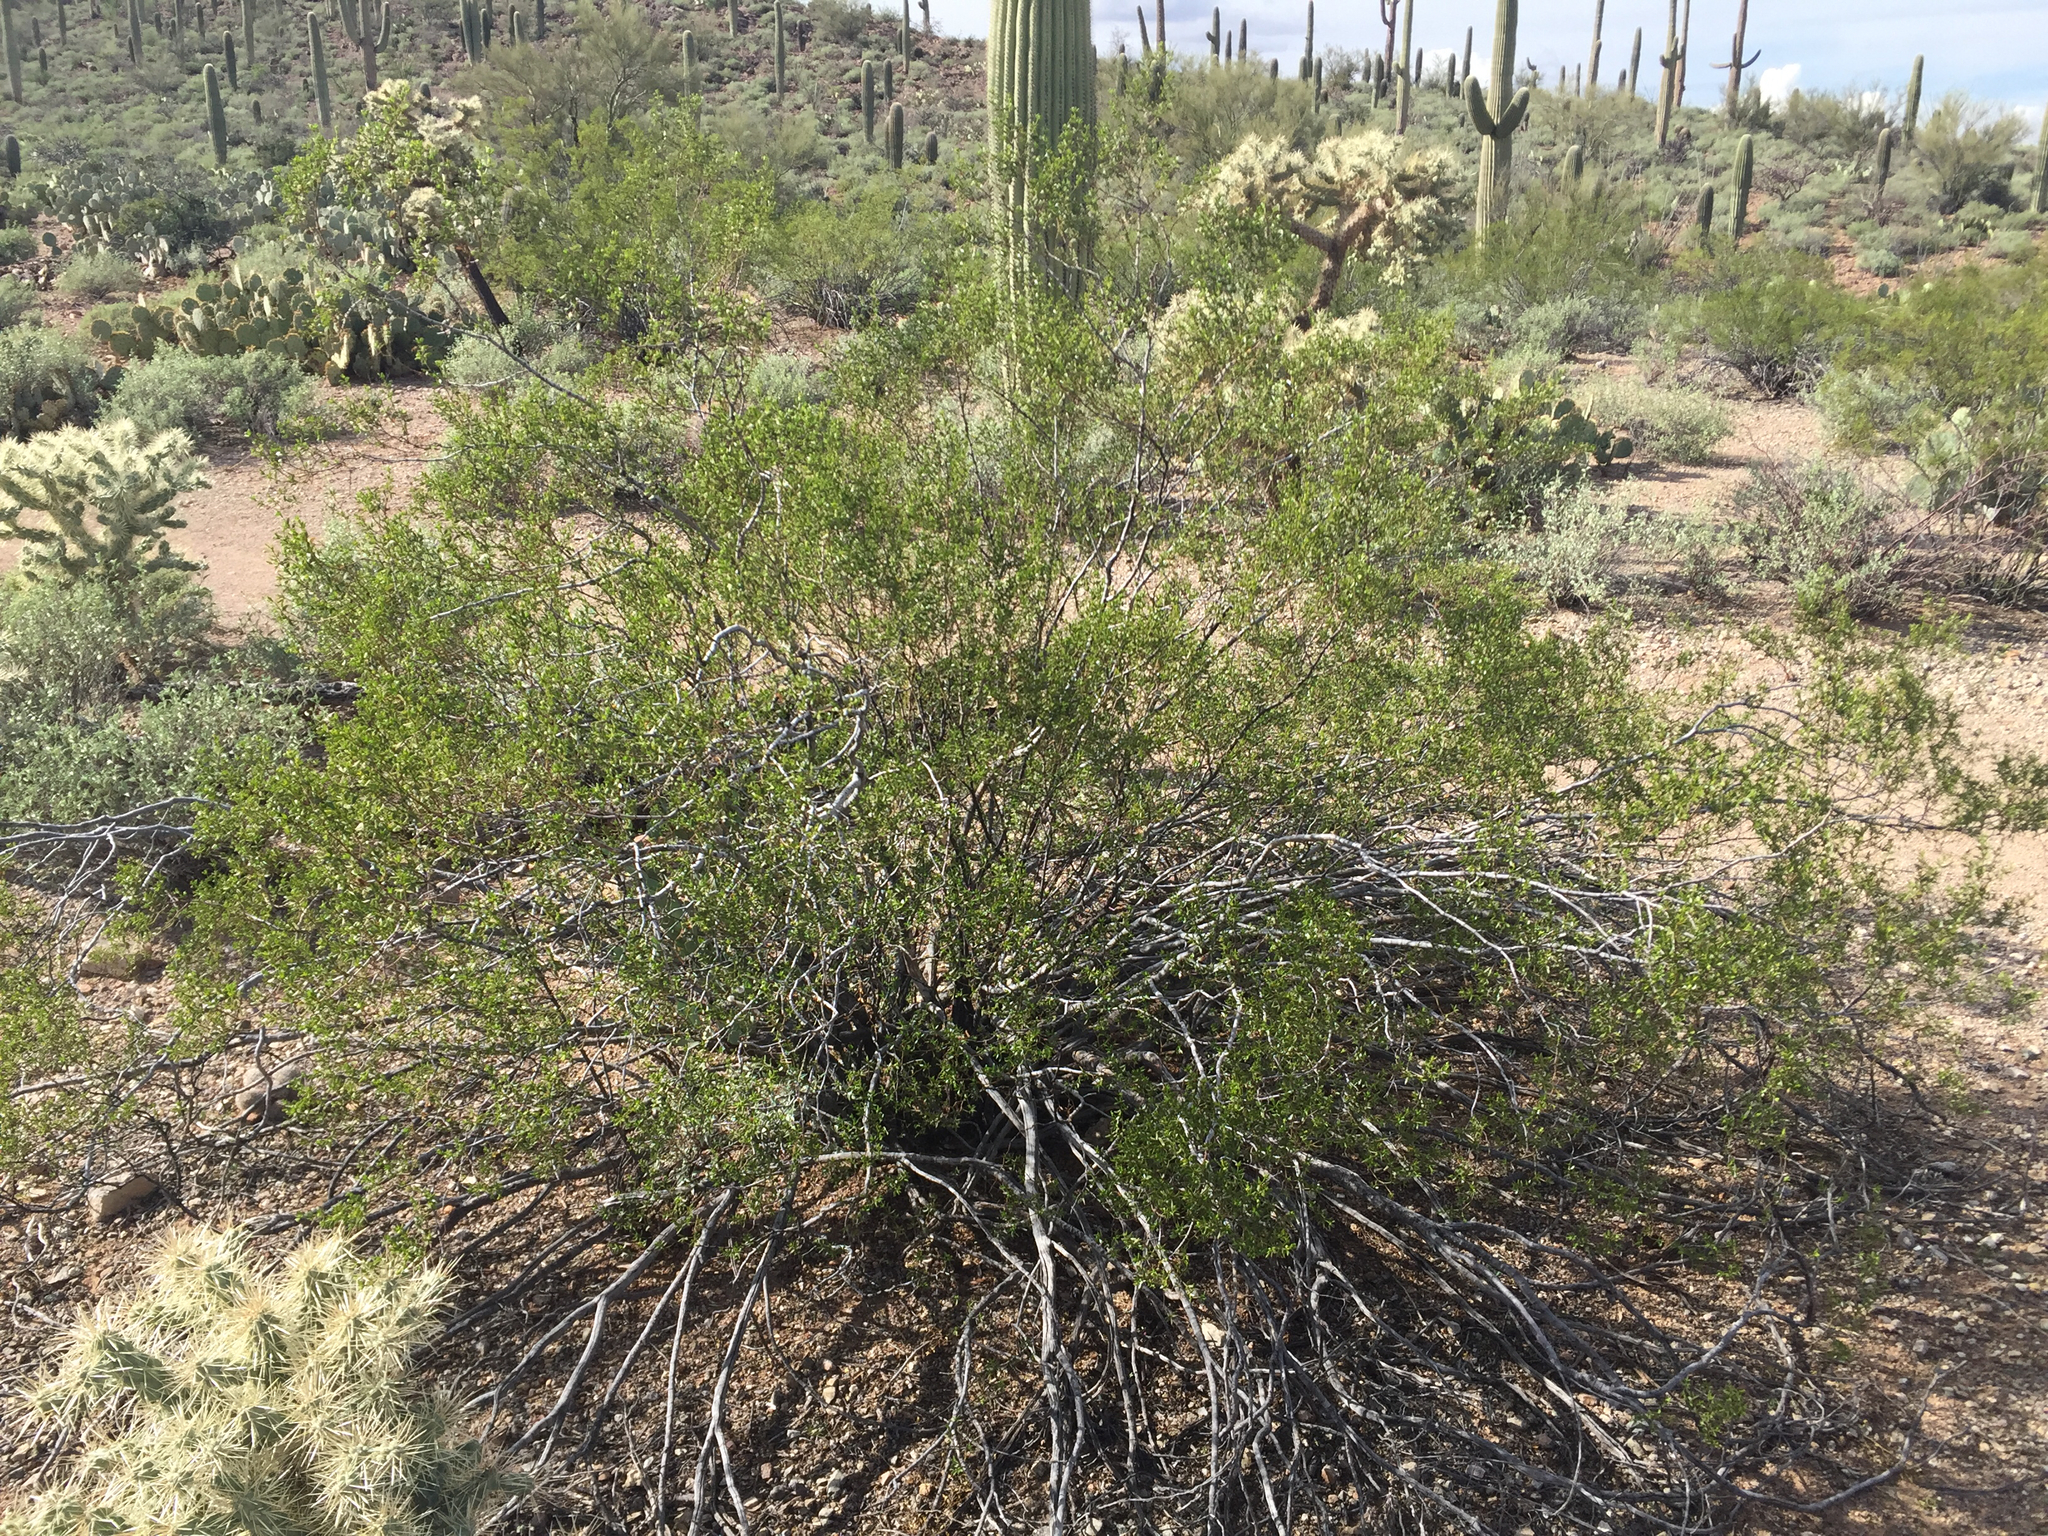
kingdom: Plantae
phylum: Tracheophyta
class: Magnoliopsida
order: Zygophyllales
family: Zygophyllaceae
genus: Larrea
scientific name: Larrea tridentata
